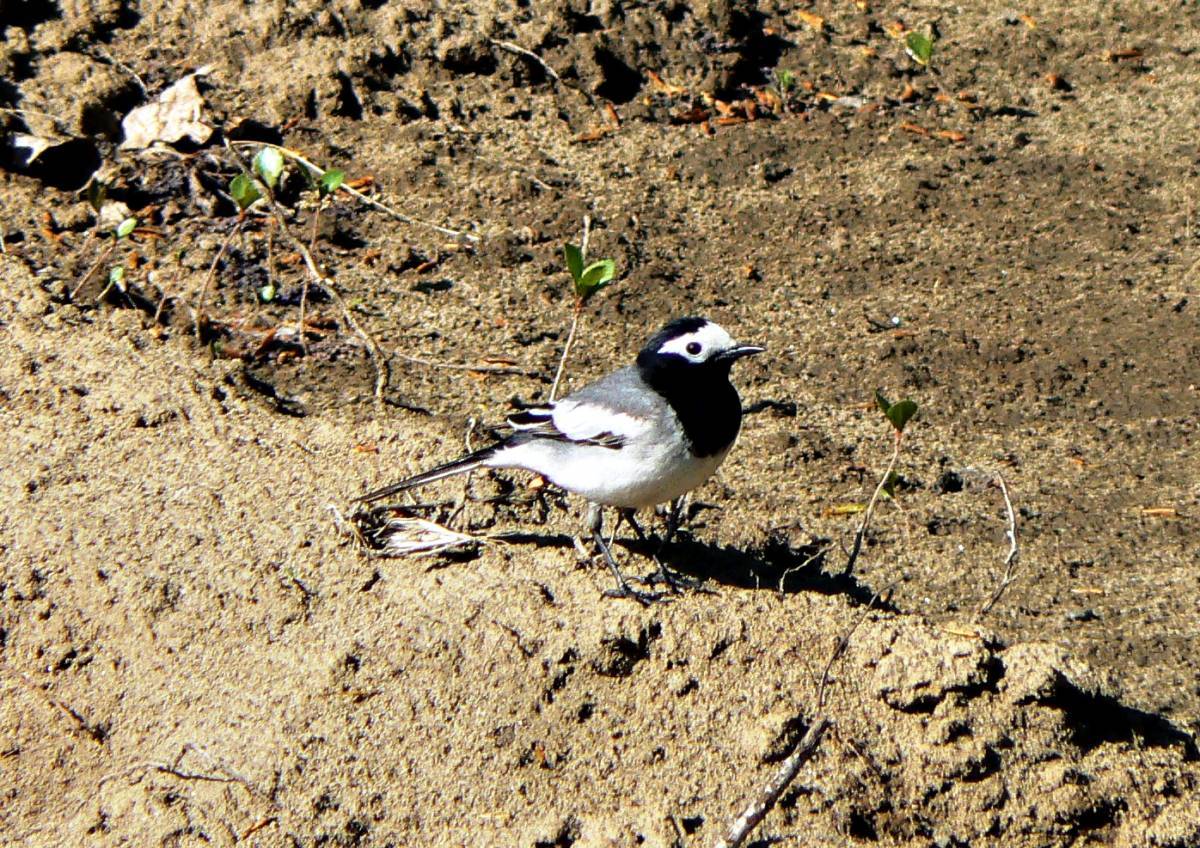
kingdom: Animalia
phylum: Chordata
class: Aves
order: Passeriformes
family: Motacillidae
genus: Motacilla
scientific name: Motacilla alba
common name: White wagtail
